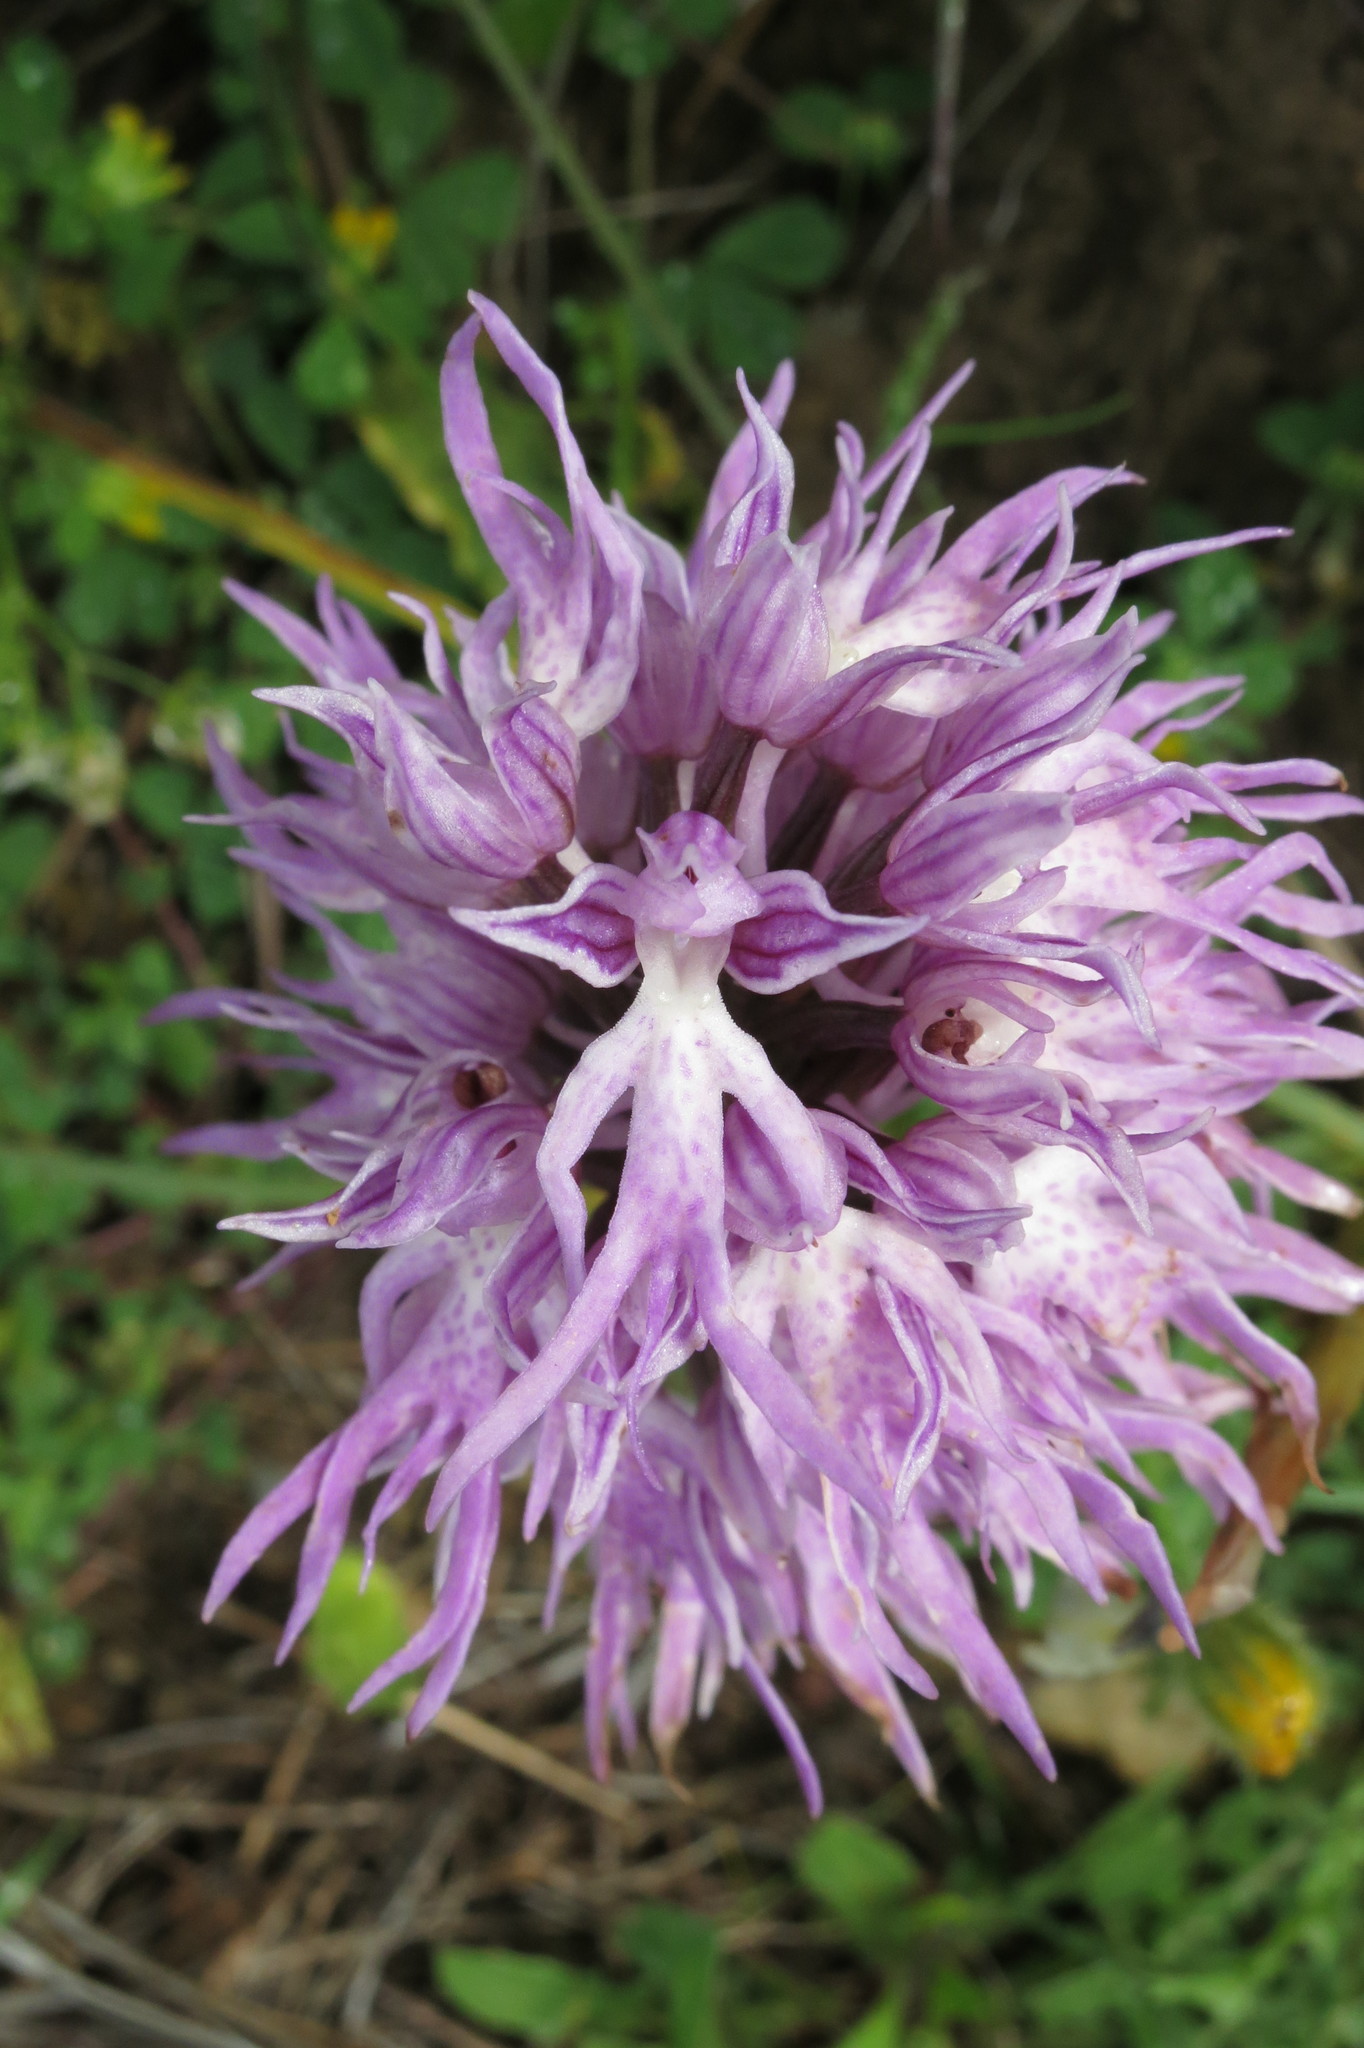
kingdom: Plantae
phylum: Tracheophyta
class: Liliopsida
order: Asparagales
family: Orchidaceae
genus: Orchis
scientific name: Orchis italica
